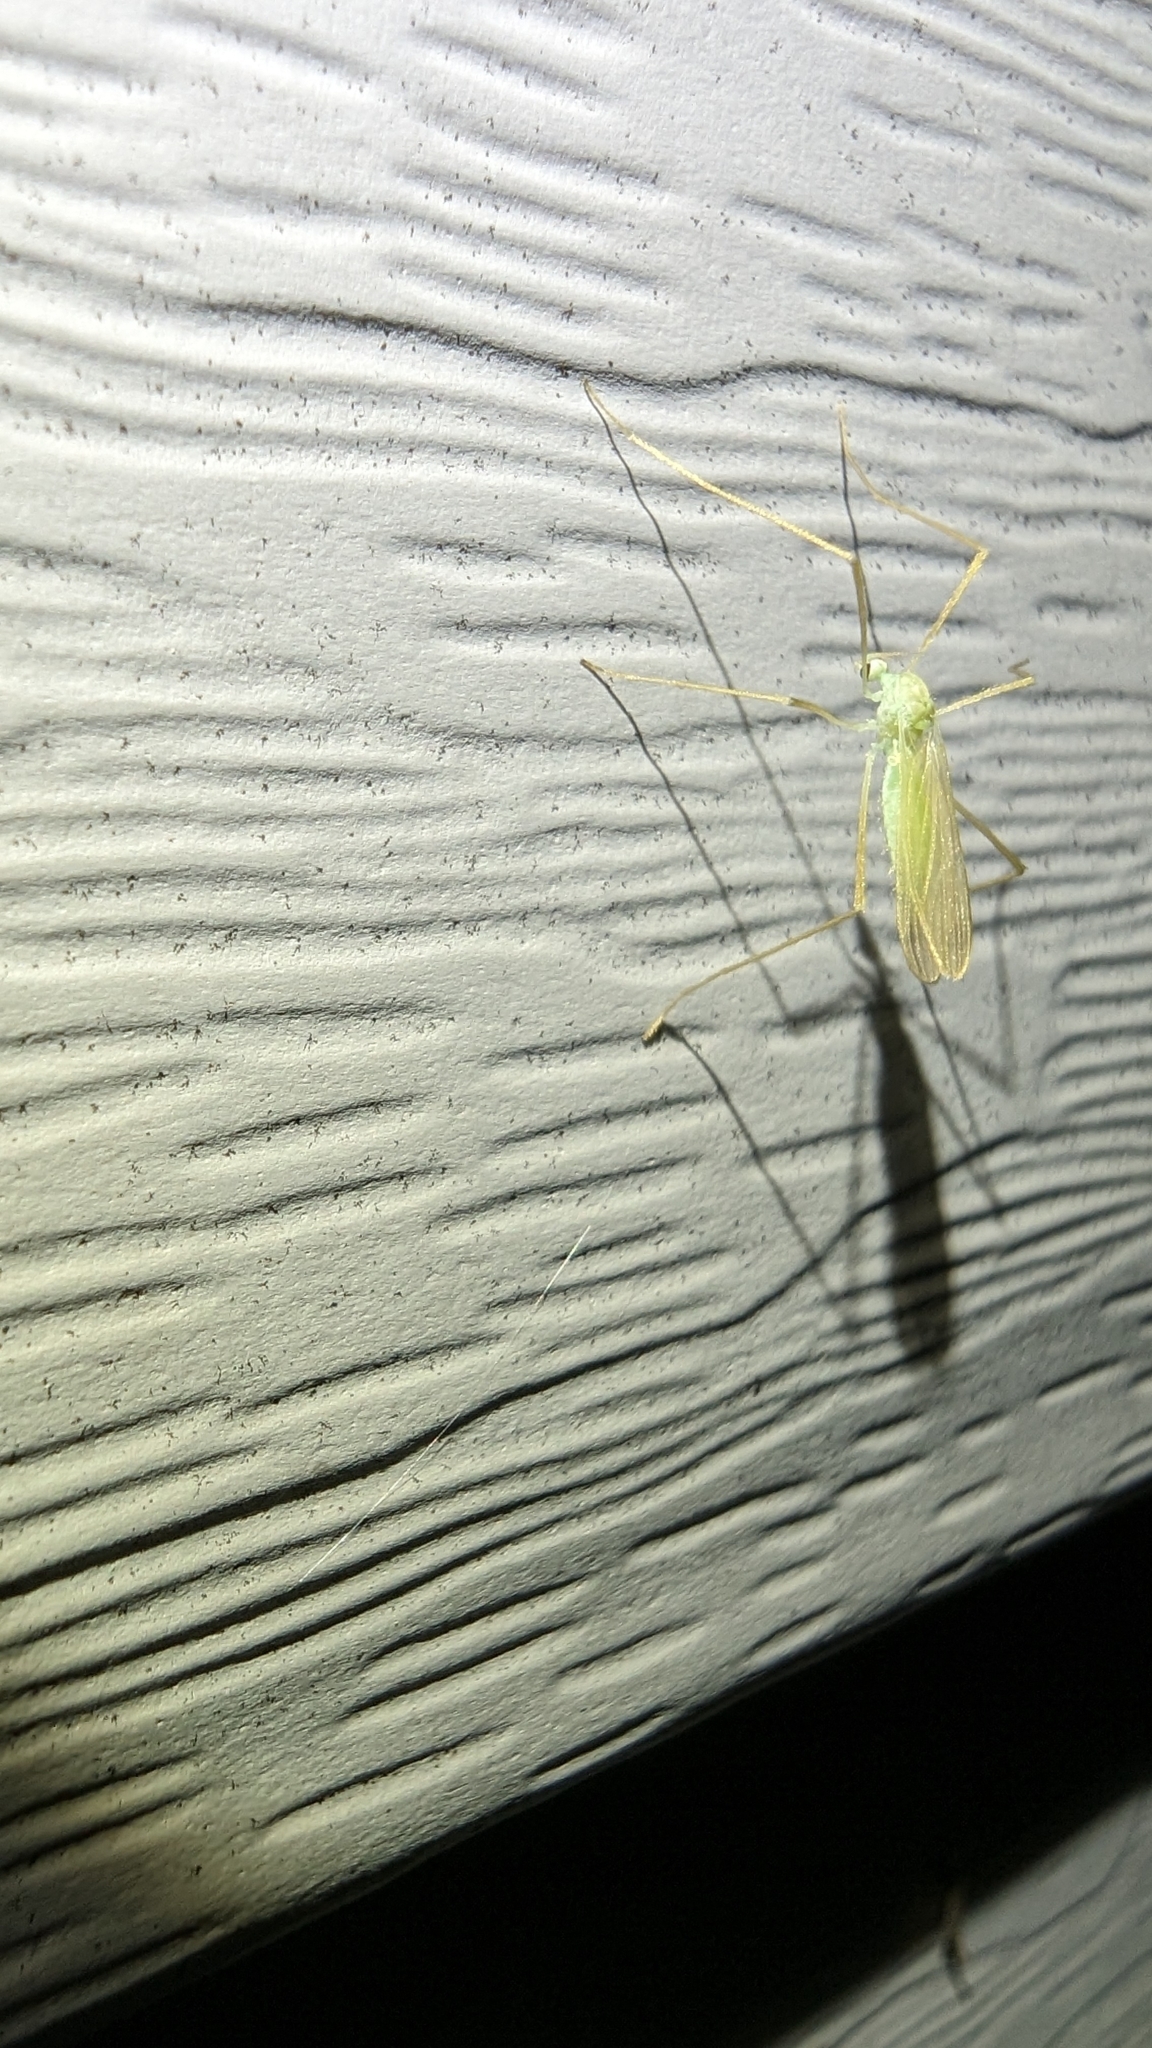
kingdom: Animalia
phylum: Arthropoda
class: Insecta
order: Diptera
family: Limoniidae
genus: Erioptera
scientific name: Erioptera
